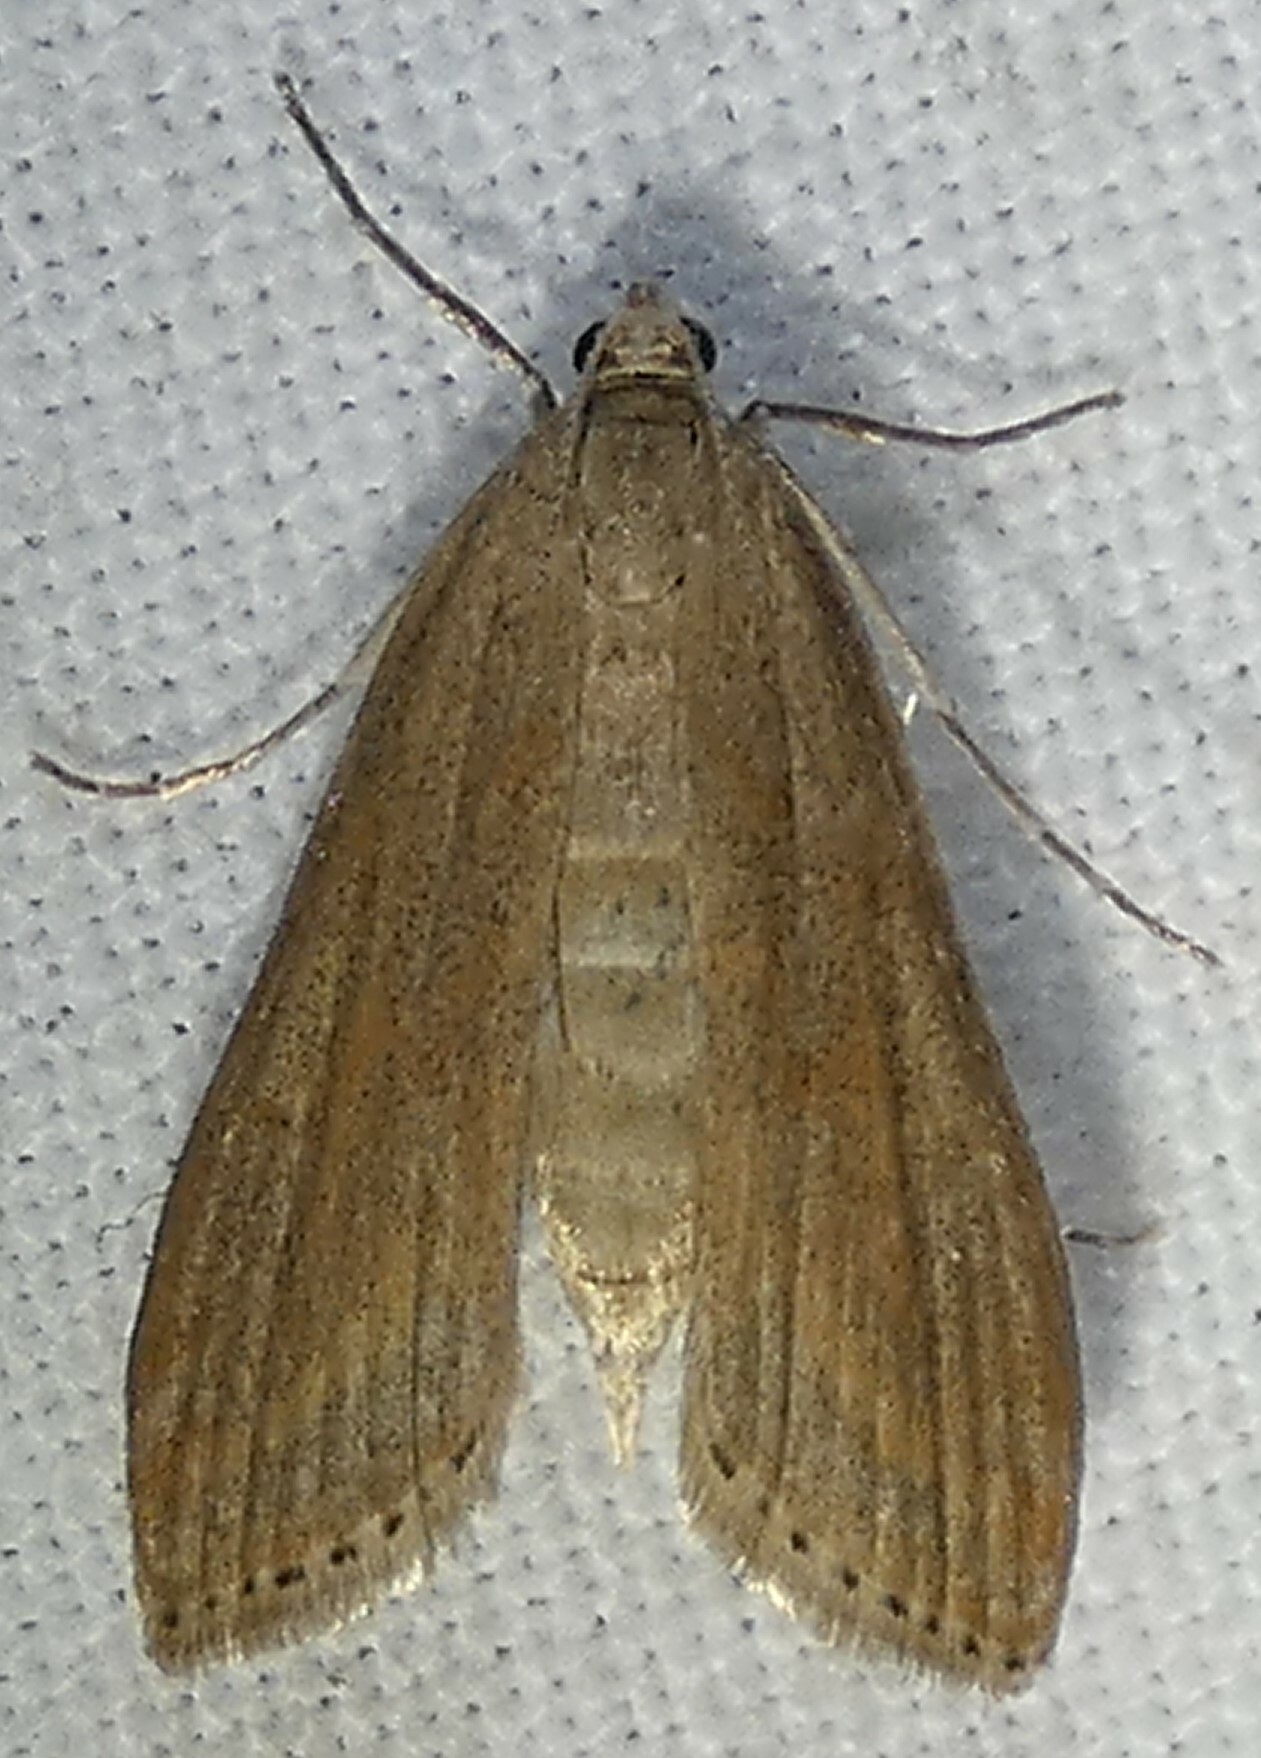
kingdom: Animalia
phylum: Arthropoda
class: Insecta
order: Lepidoptera
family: Crambidae
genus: Parapoynx
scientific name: Parapoynx allionealis
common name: Bladderwort casemaker
